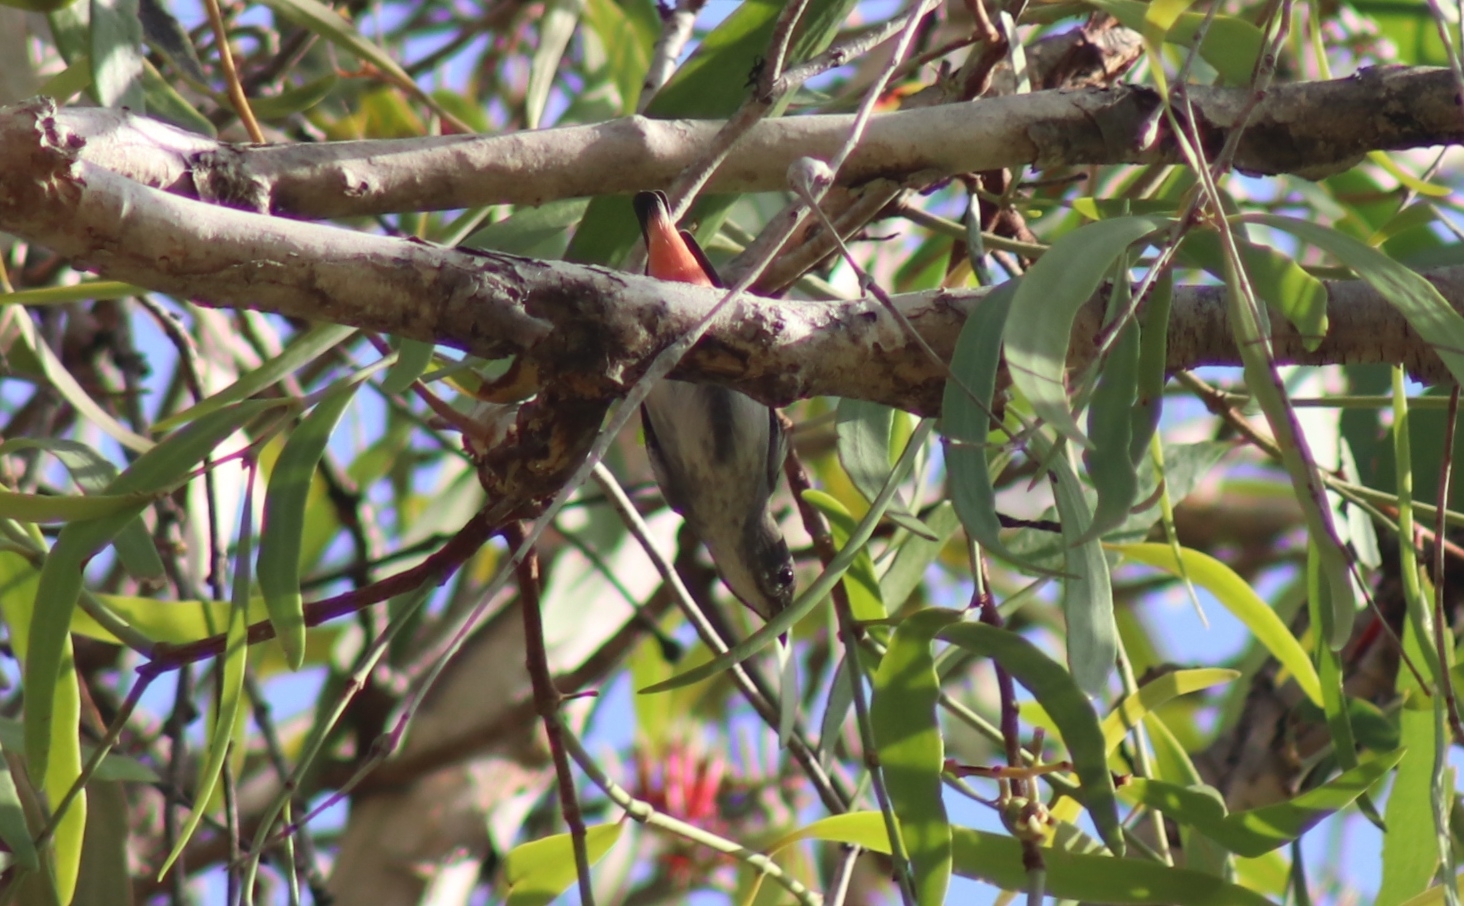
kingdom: Animalia
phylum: Chordata
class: Aves
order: Passeriformes
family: Dicaeidae
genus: Dicaeum
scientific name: Dicaeum hirundinaceum
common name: Mistletoebird
